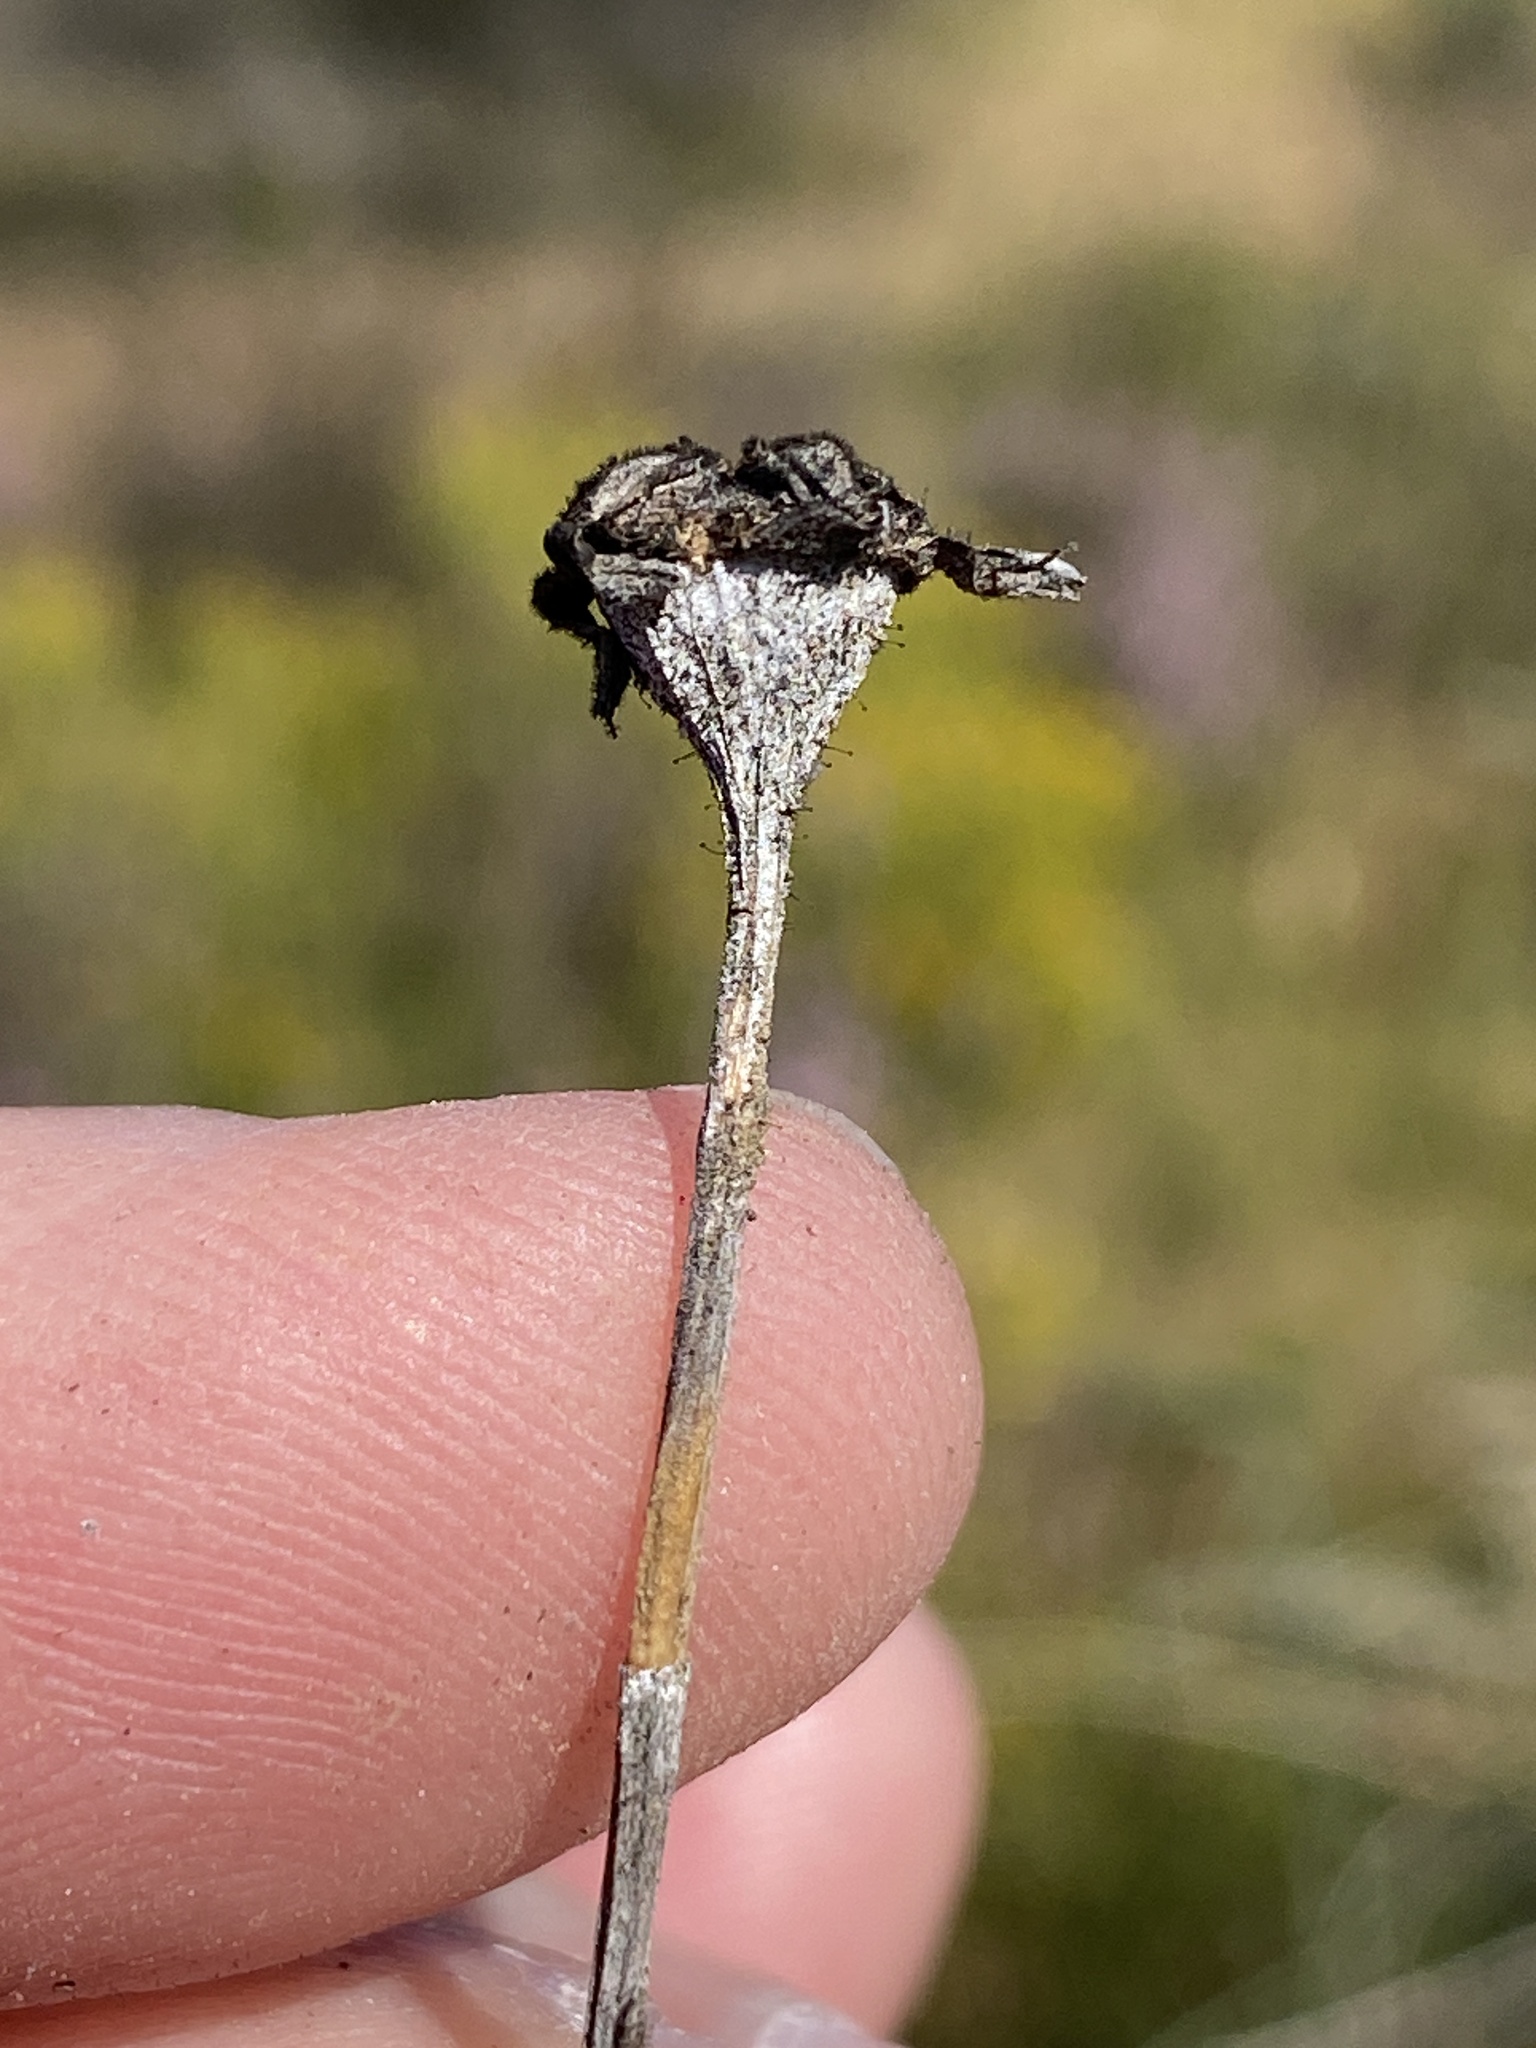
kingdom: Plantae
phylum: Tracheophyta
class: Magnoliopsida
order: Caryophyllales
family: Aizoaceae
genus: Antimima
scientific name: Antimima stayneri
